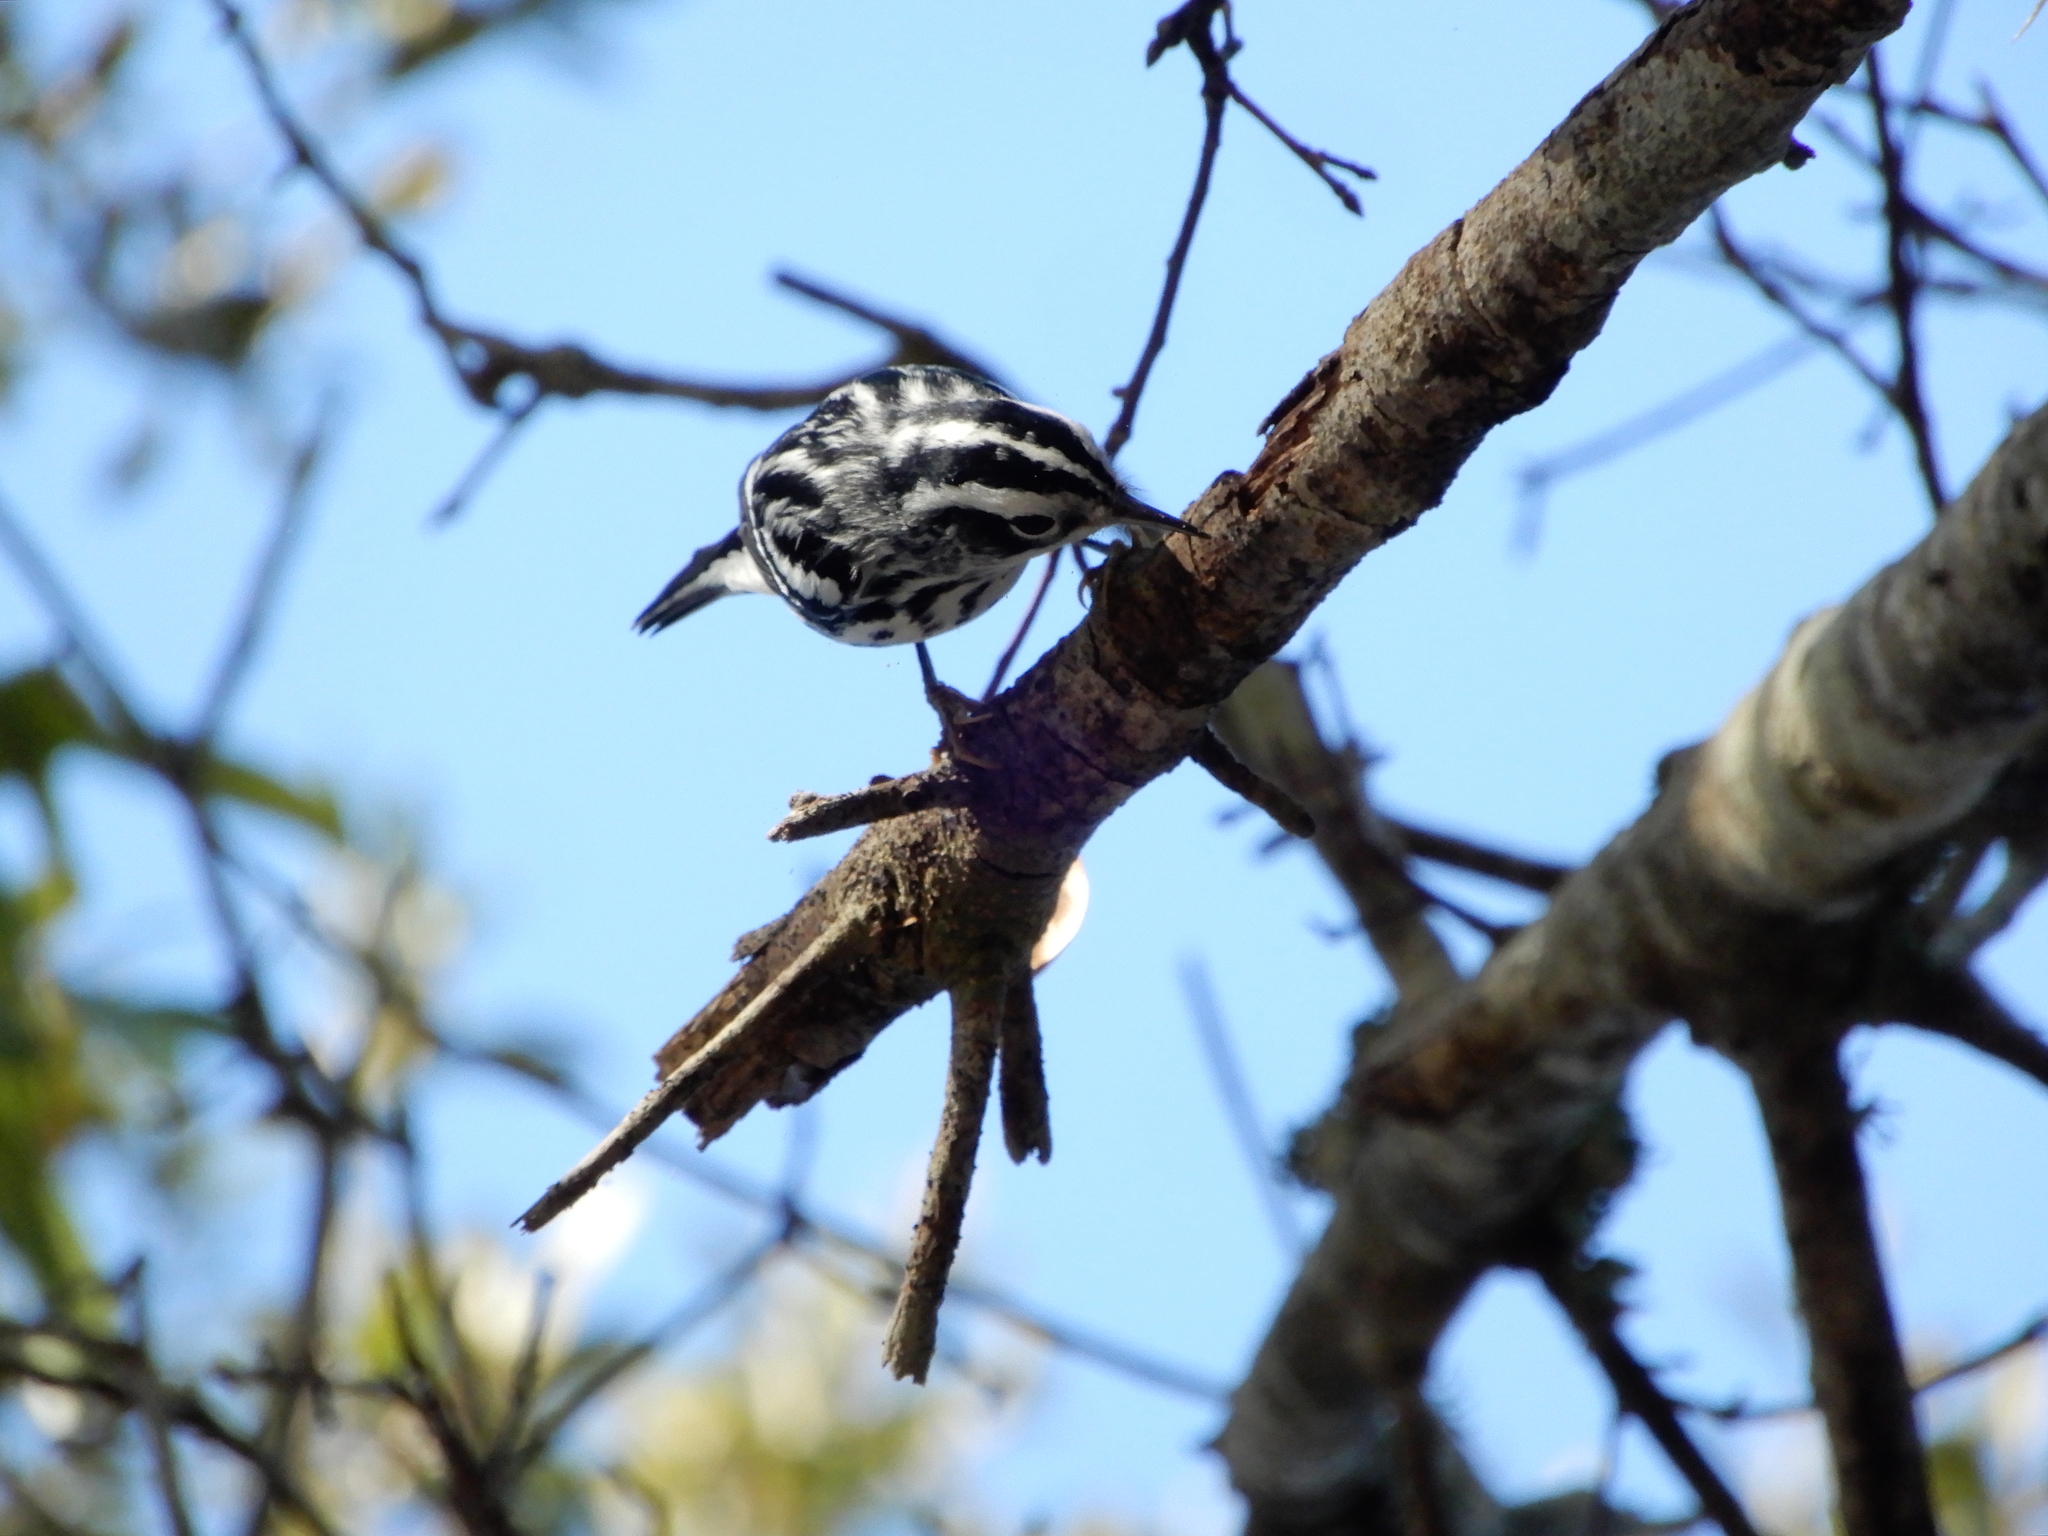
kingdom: Animalia
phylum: Chordata
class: Aves
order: Passeriformes
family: Parulidae
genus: Mniotilta
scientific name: Mniotilta varia
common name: Black-and-white warbler
